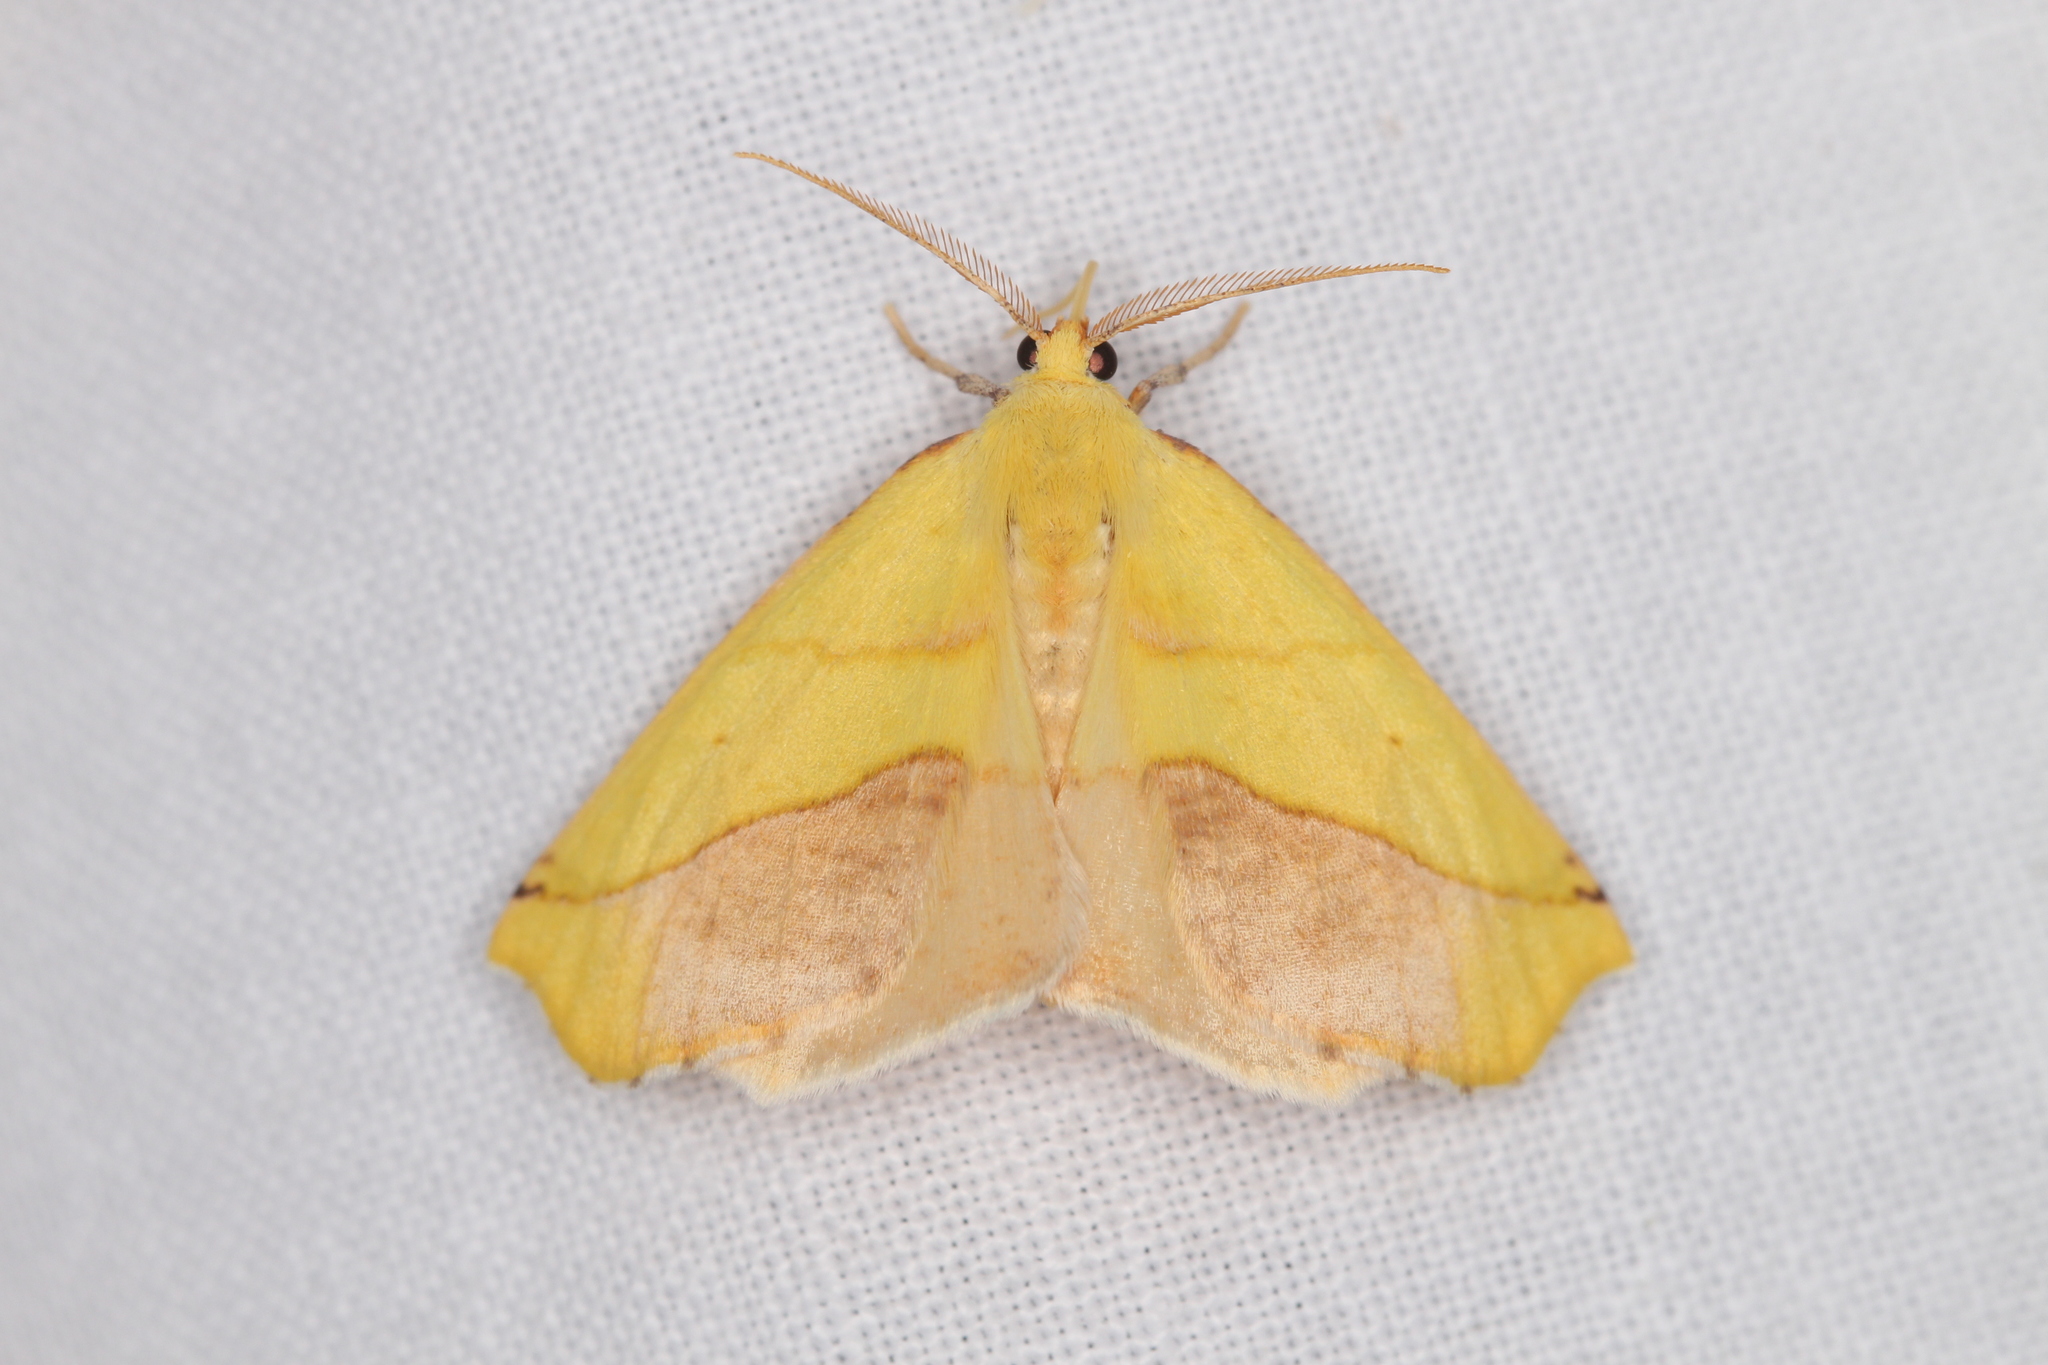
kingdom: Animalia
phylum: Arthropoda
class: Insecta
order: Lepidoptera
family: Geometridae
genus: Sicya
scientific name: Sicya macularia
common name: Sharp-lined yellow
